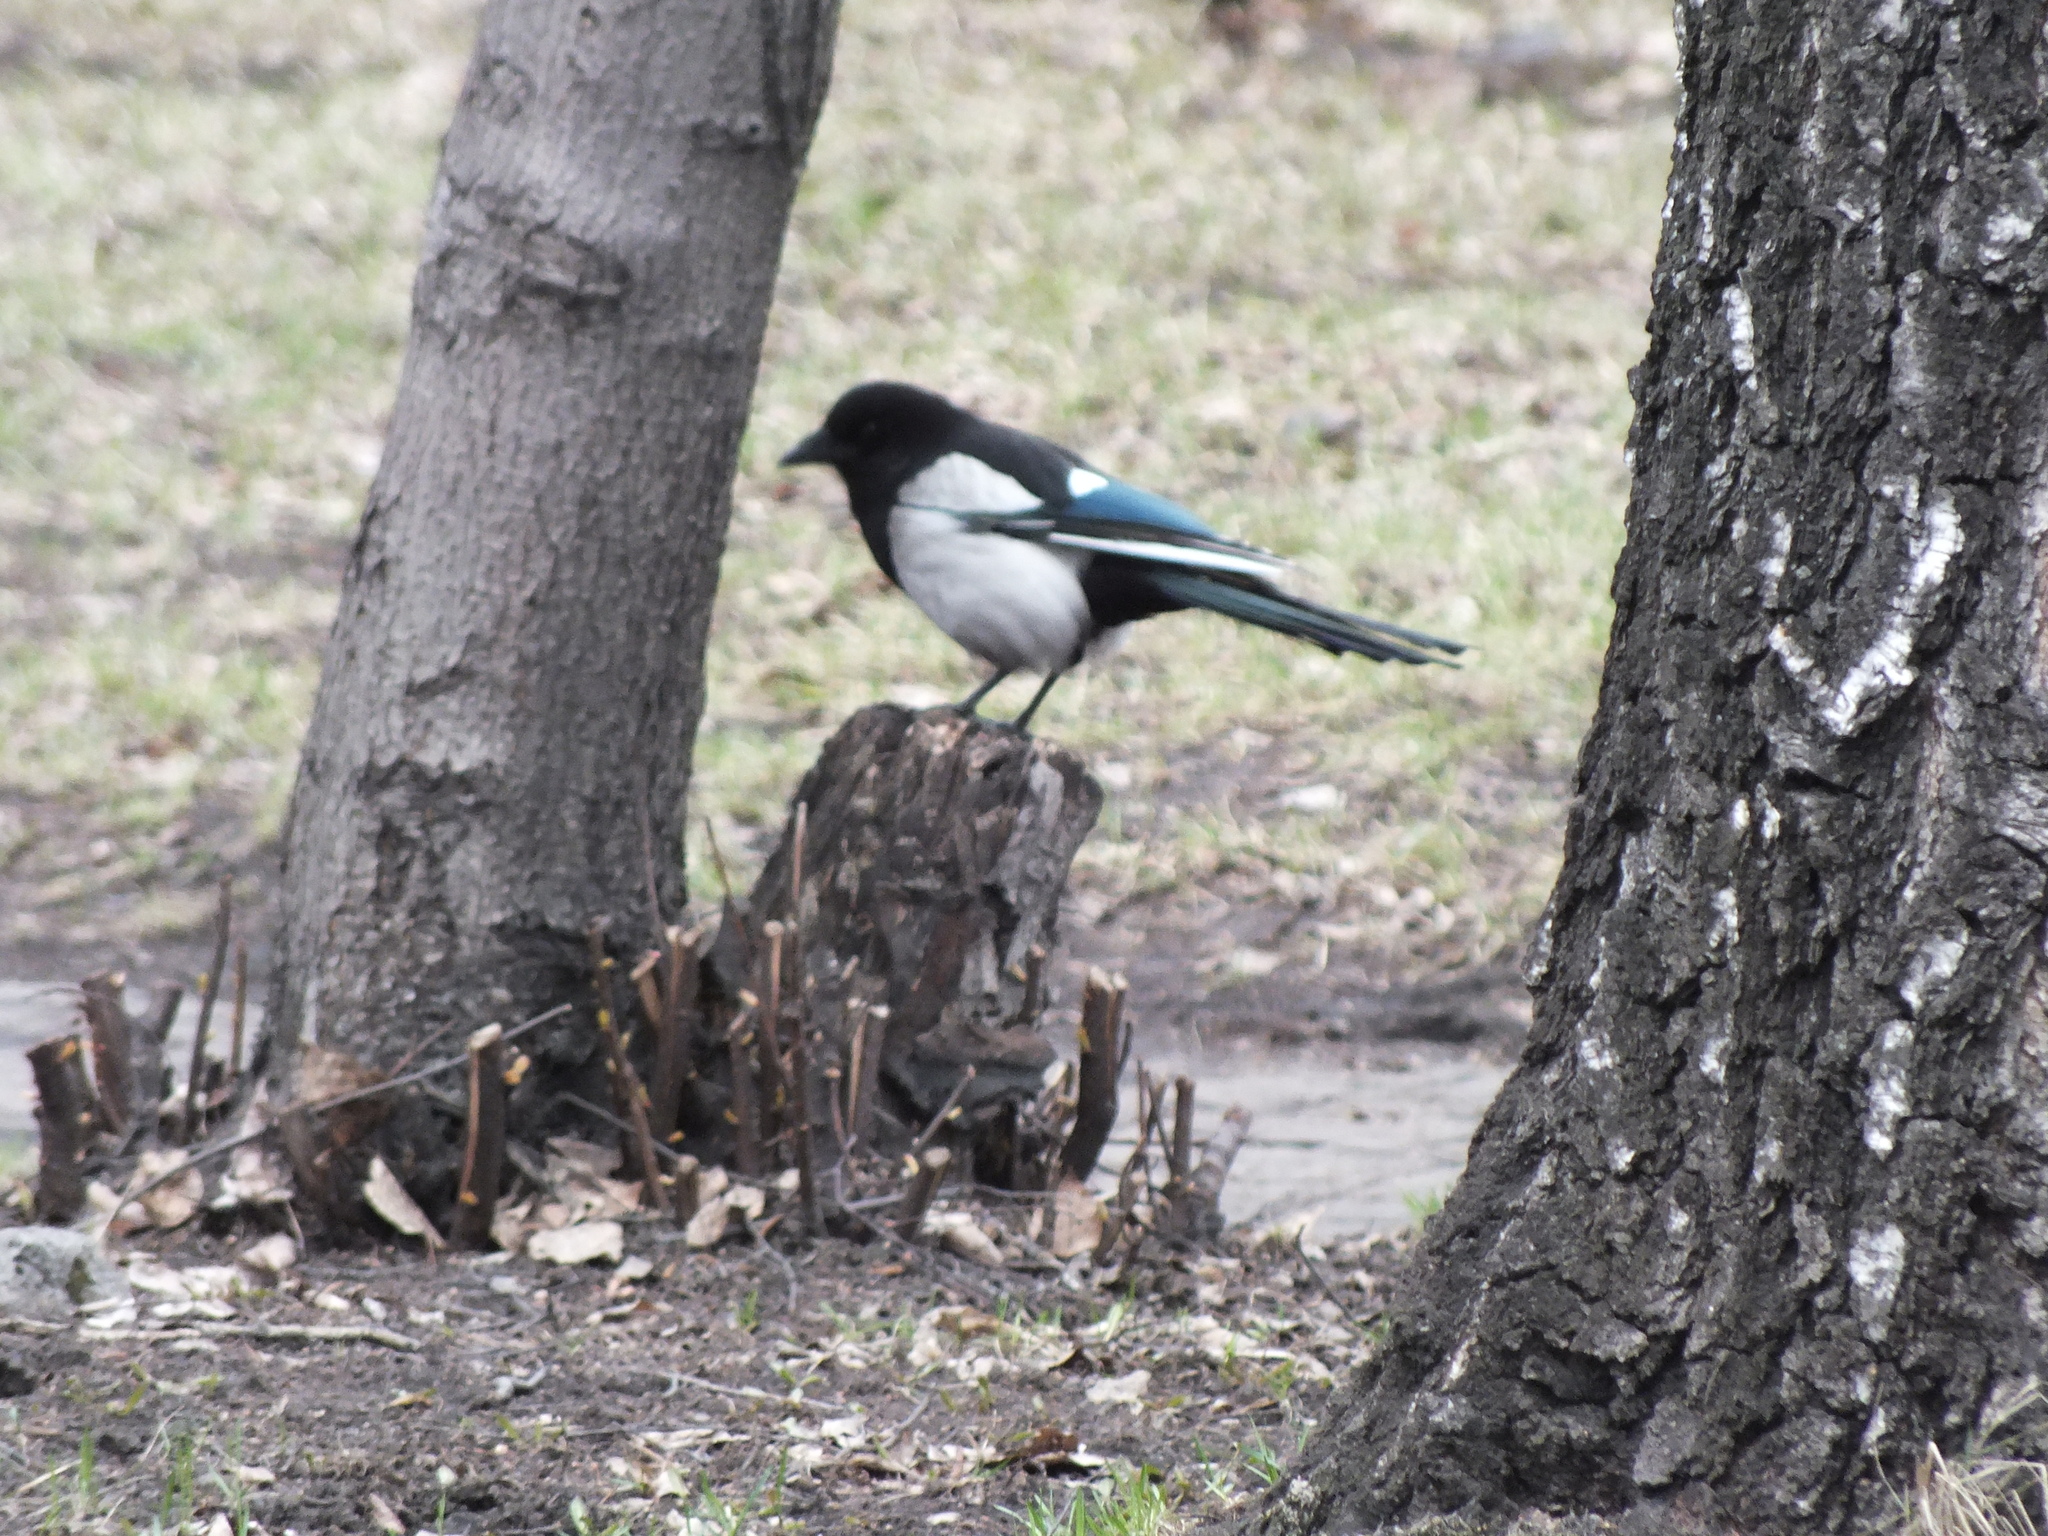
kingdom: Animalia
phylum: Chordata
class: Aves
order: Passeriformes
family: Corvidae
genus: Pica
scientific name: Pica pica
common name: Eurasian magpie
